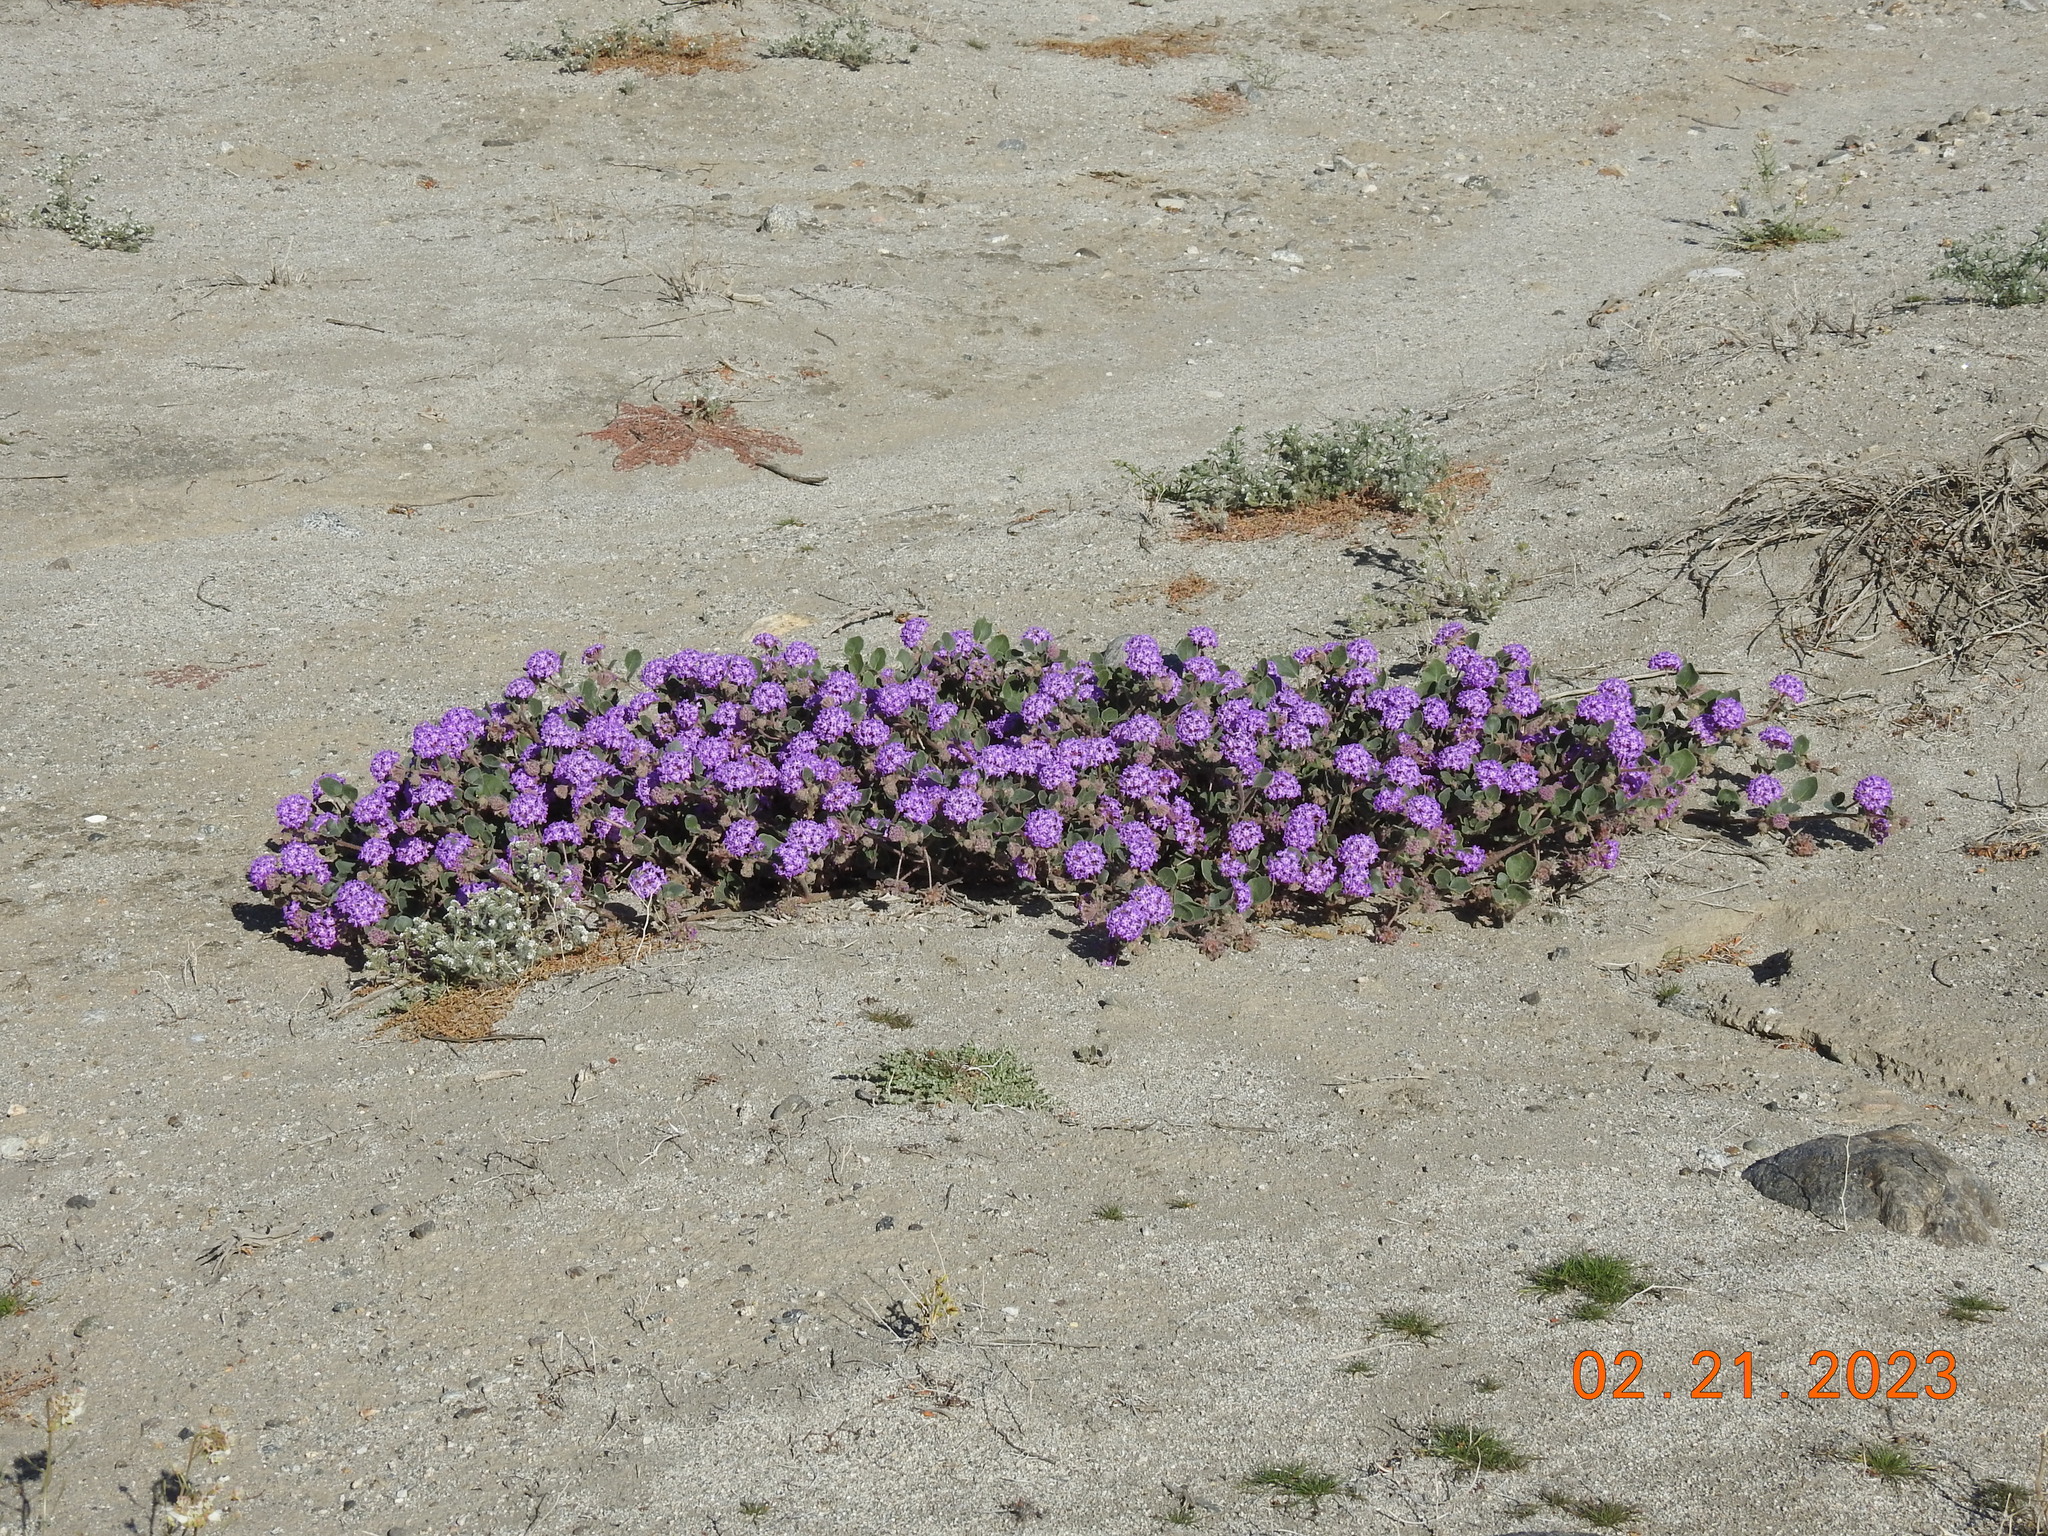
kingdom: Plantae
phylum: Tracheophyta
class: Magnoliopsida
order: Caryophyllales
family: Nyctaginaceae
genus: Abronia
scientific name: Abronia villosa
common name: Desert sand-verbena
